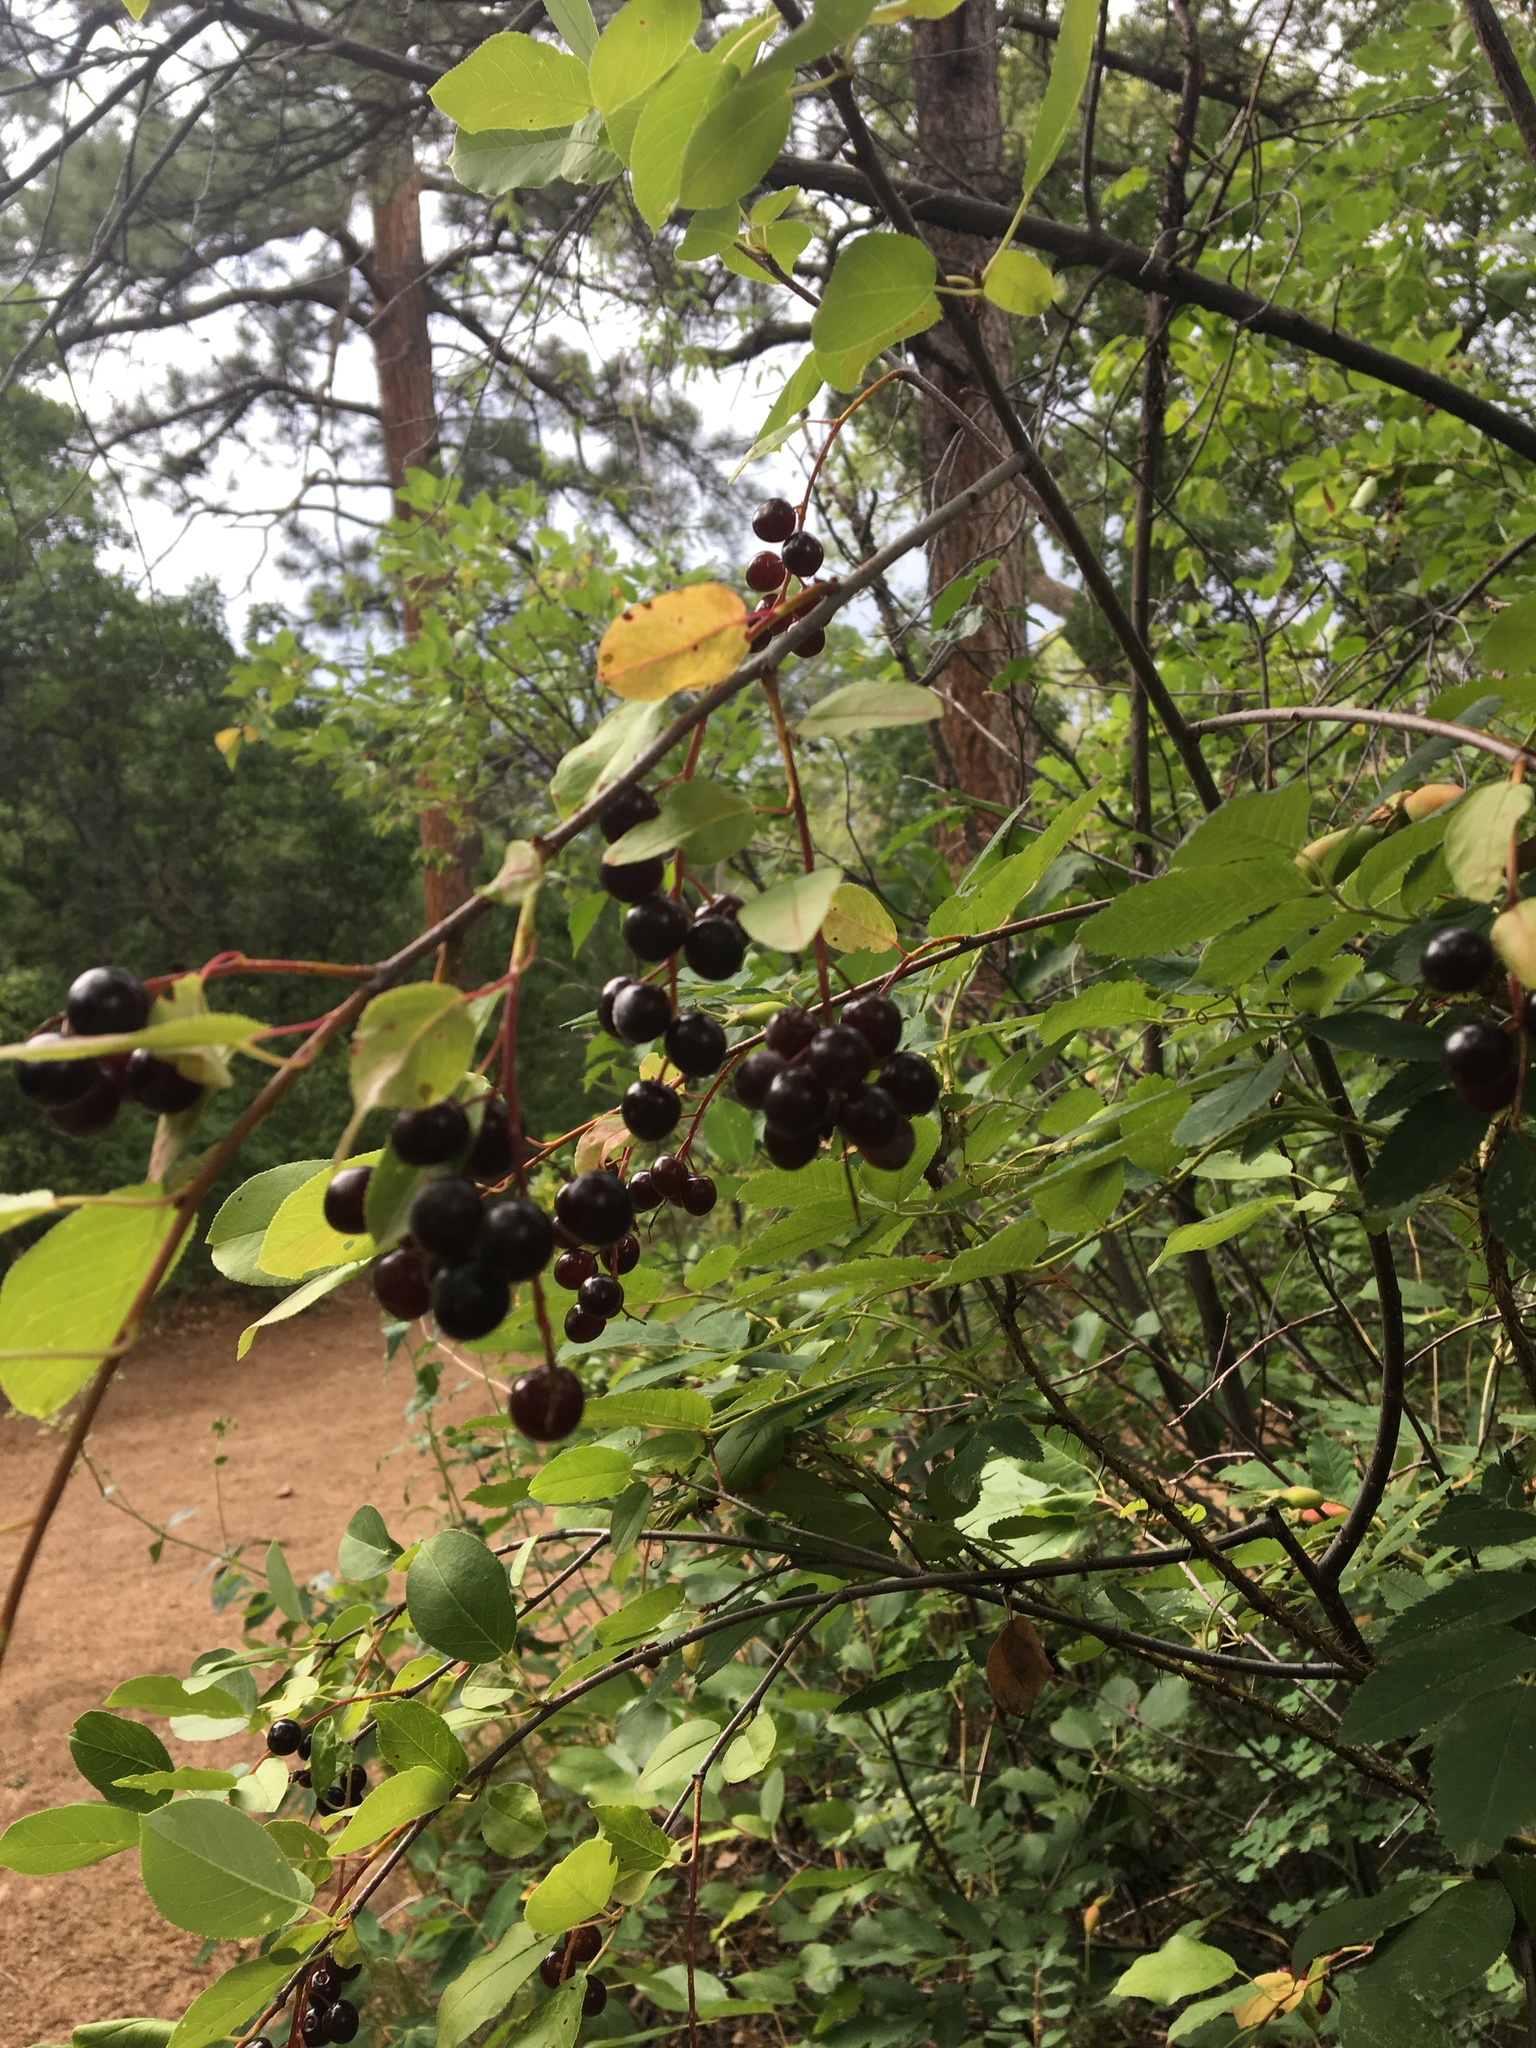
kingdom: Plantae
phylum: Tracheophyta
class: Magnoliopsida
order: Rosales
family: Rosaceae
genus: Prunus
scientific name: Prunus virginiana
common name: Chokecherry
